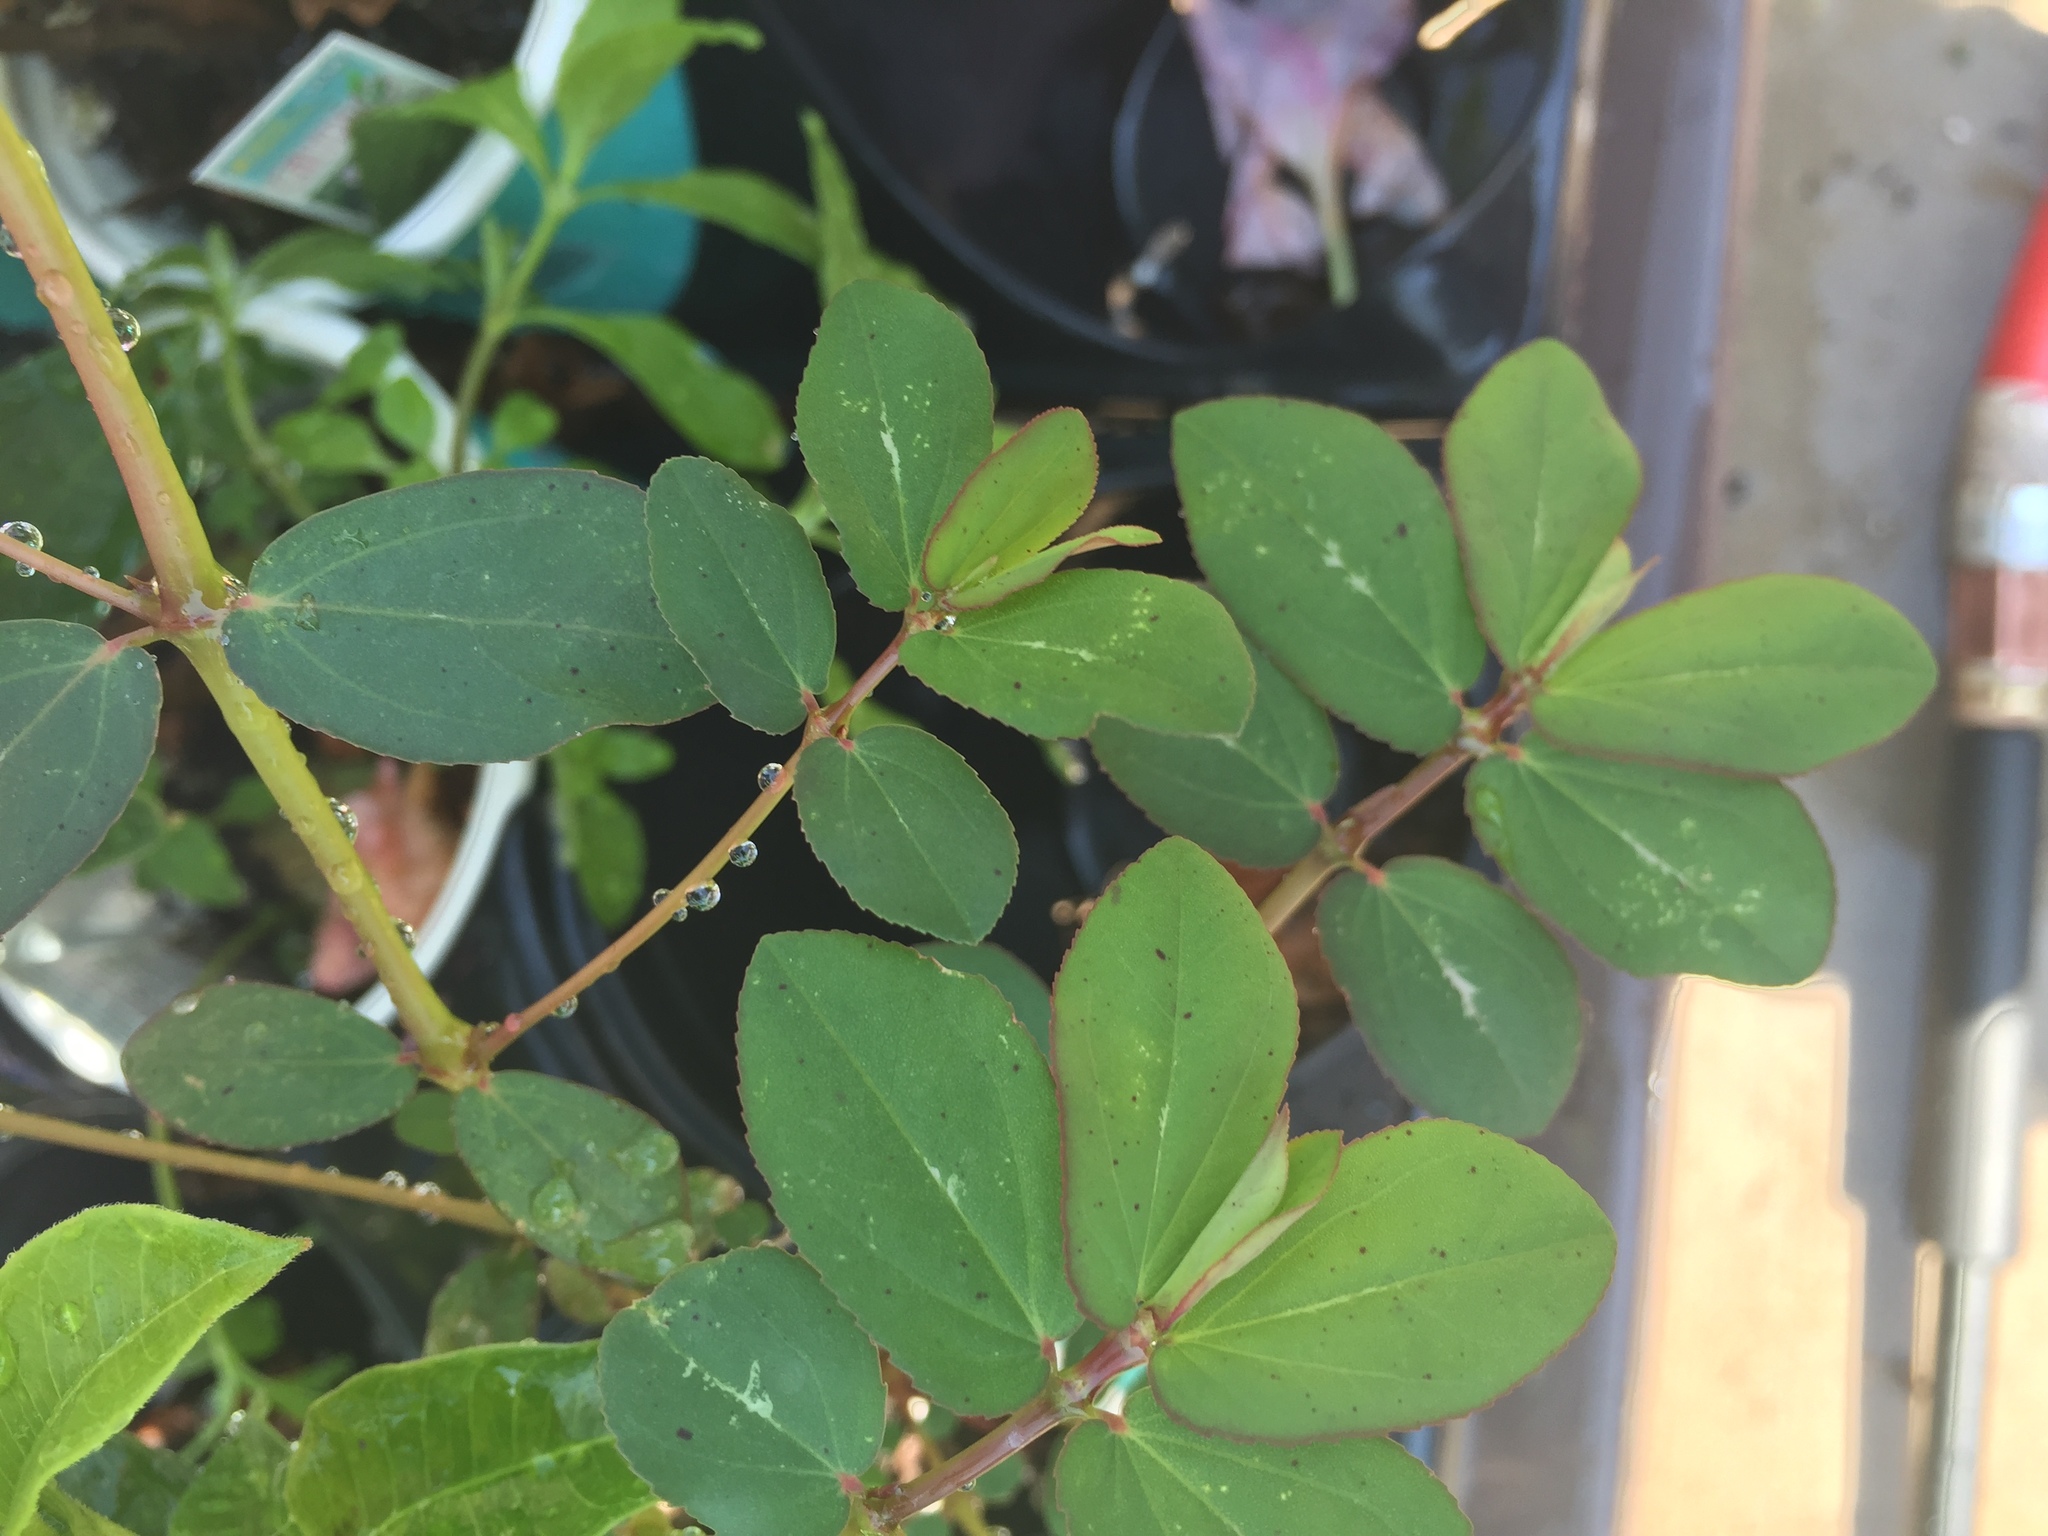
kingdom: Plantae
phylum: Tracheophyta
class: Magnoliopsida
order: Malpighiales
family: Euphorbiaceae
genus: Euphorbia
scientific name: Euphorbia hyssopifolia
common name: Hyssopleaf sandmat
